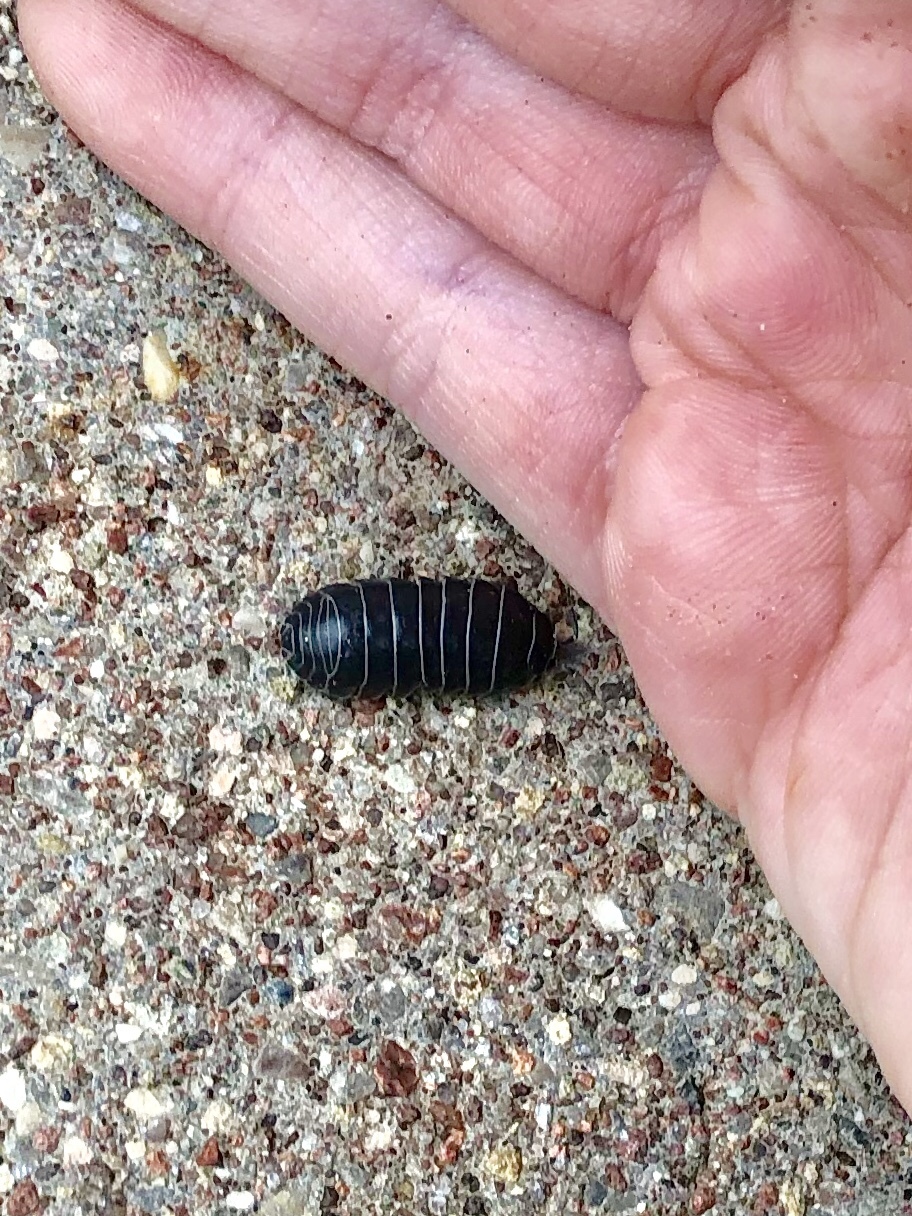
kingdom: Animalia
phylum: Arthropoda
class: Malacostraca
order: Isopoda
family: Armadillidiidae
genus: Armadillidium
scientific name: Armadillidium vulgare
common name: Common pill woodlouse
